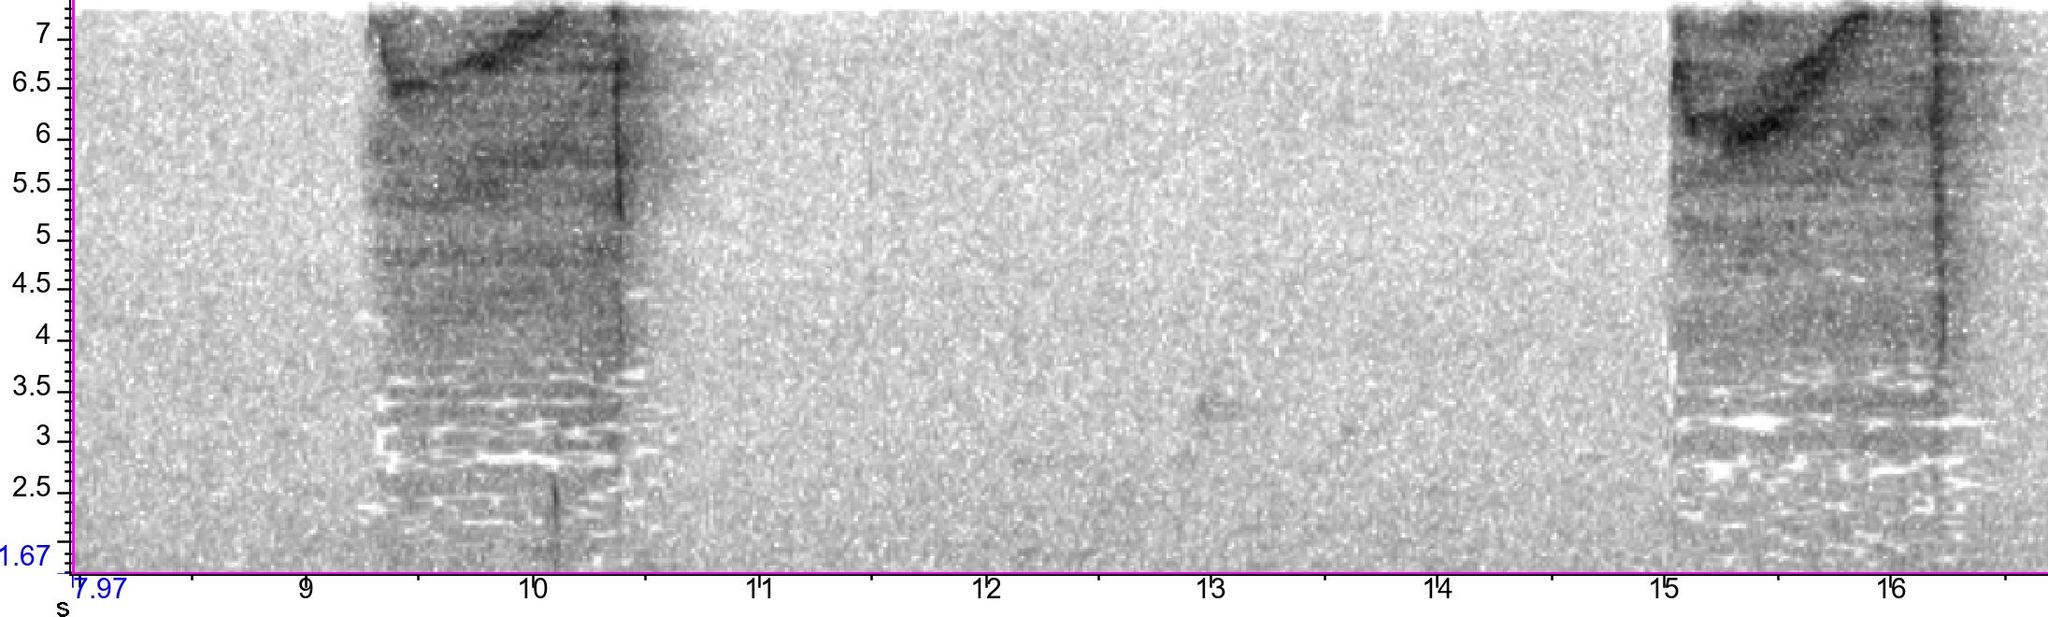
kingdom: Animalia
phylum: Chordata
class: Aves
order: Strigiformes
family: Strigidae
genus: Strix
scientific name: Strix varia
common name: Barred owl
